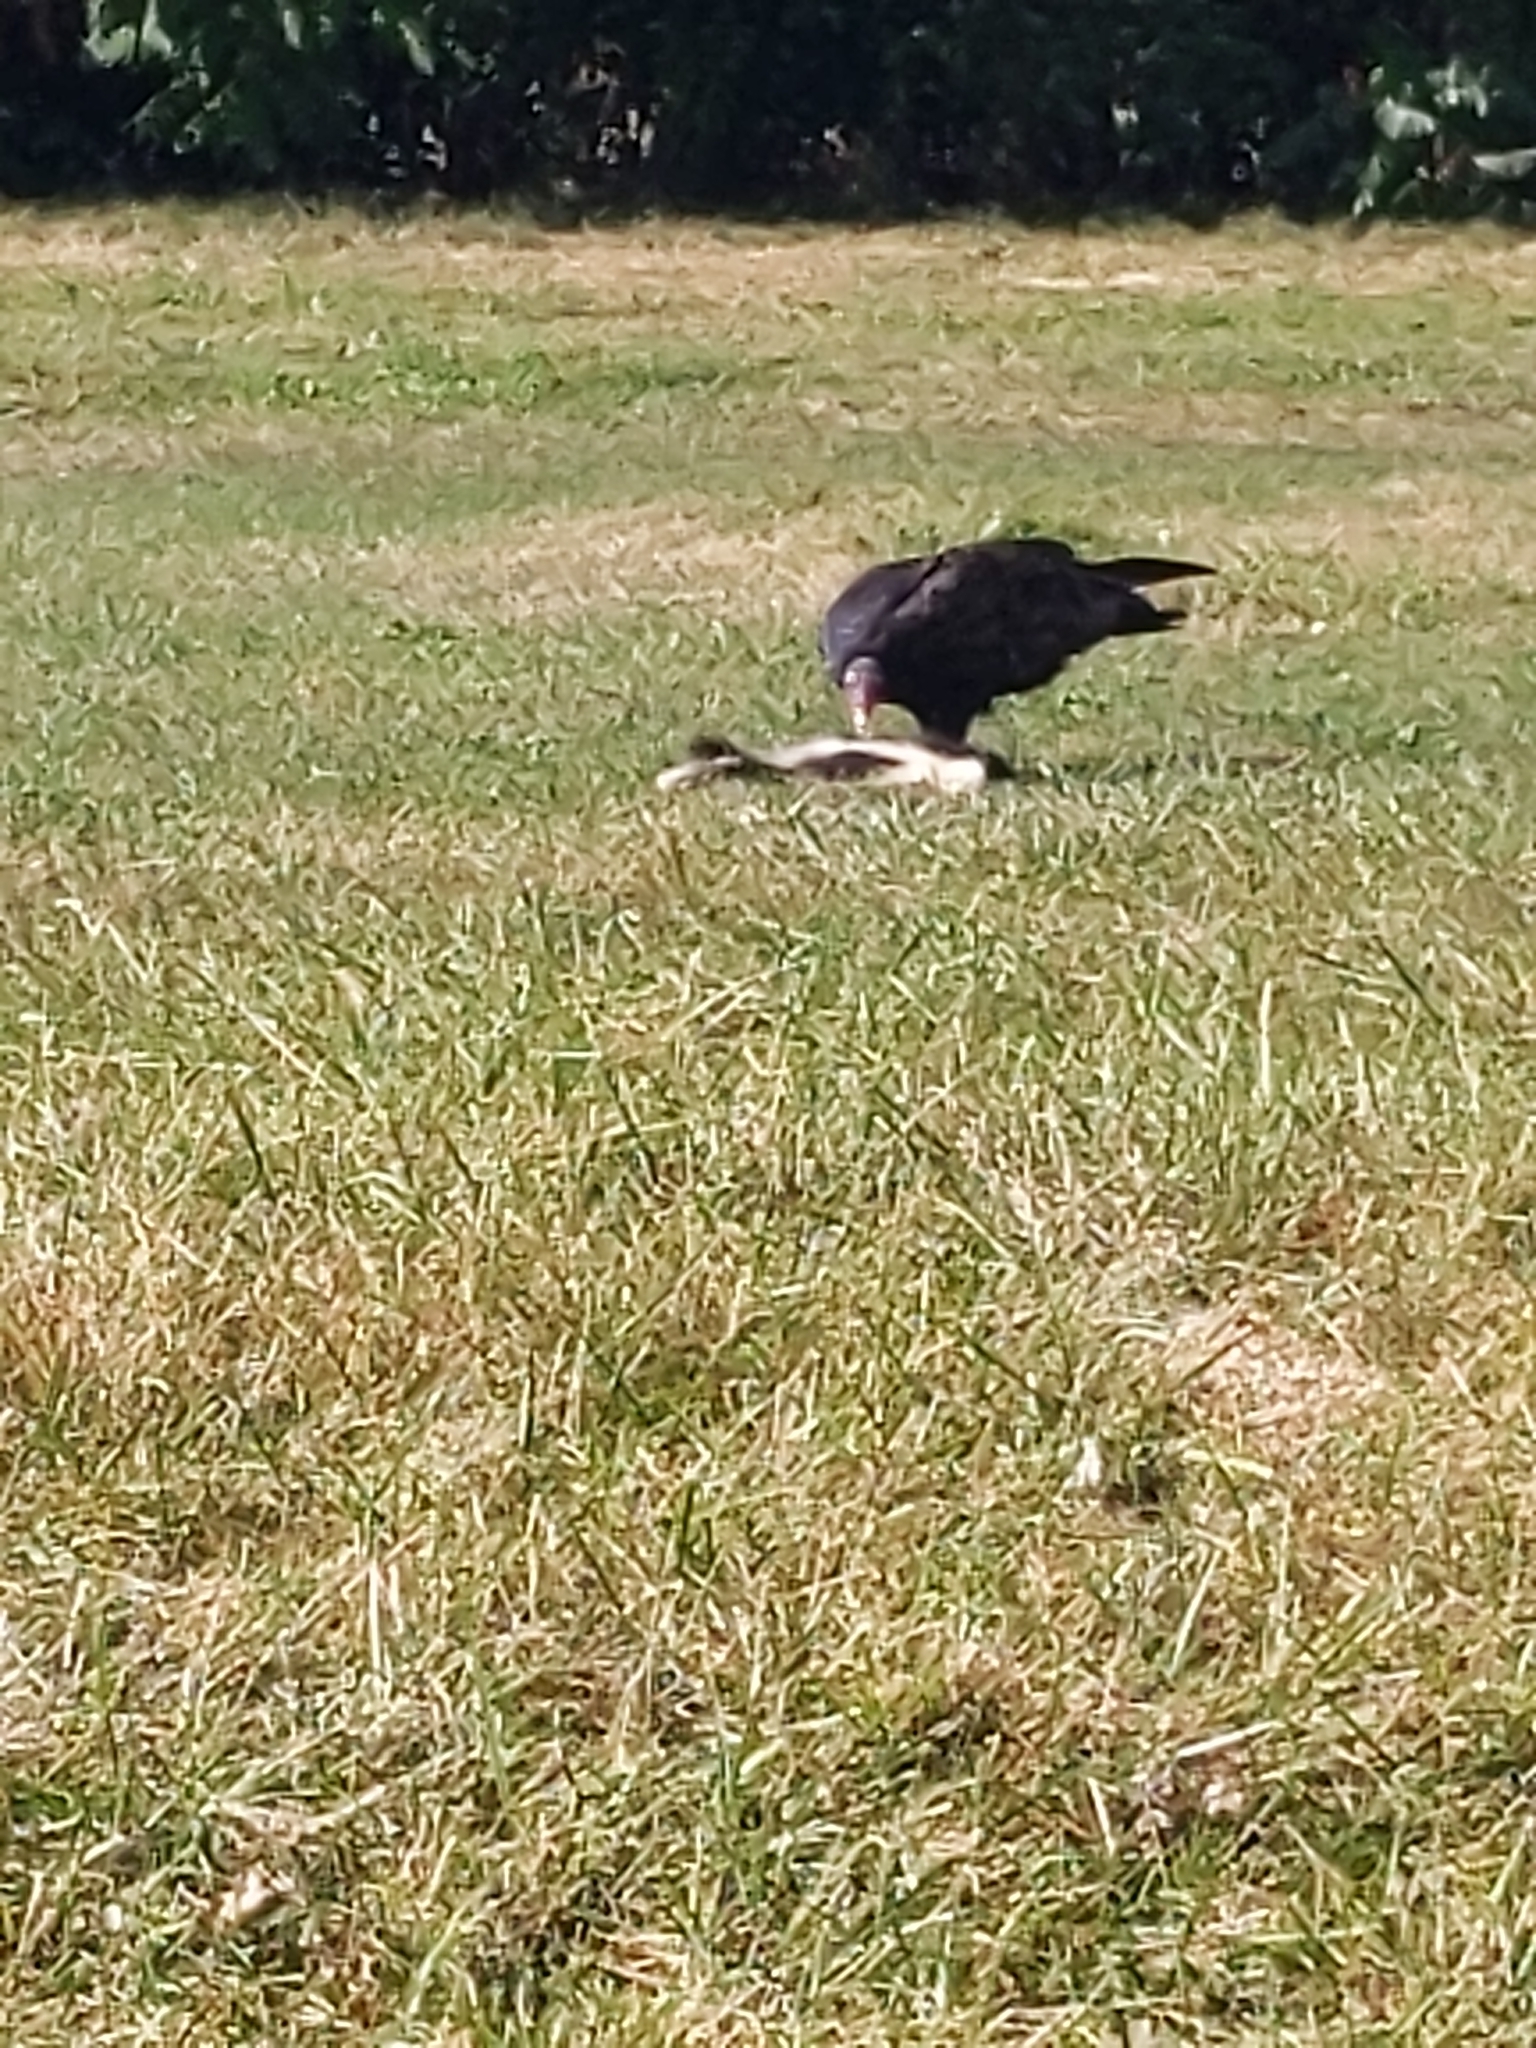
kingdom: Animalia
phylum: Chordata
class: Aves
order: Accipitriformes
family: Cathartidae
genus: Cathartes
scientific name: Cathartes aura
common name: Turkey vulture
